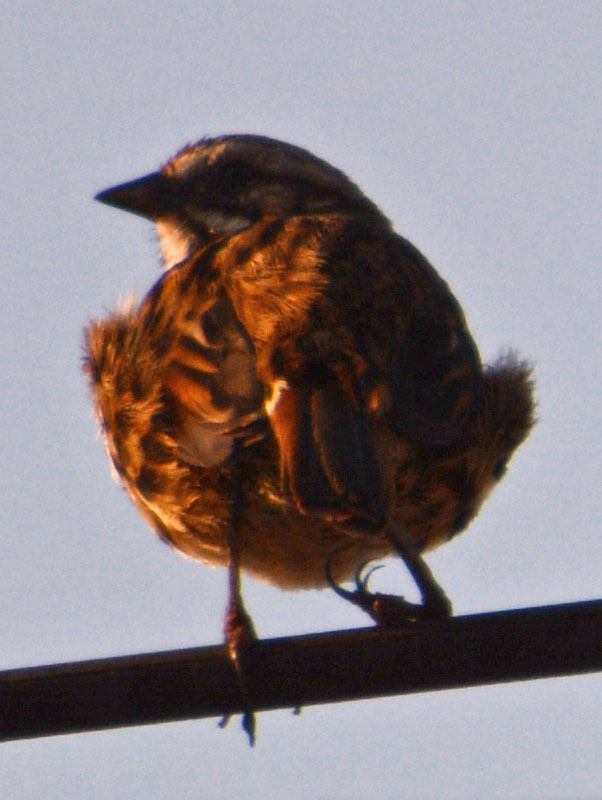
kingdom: Animalia
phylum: Chordata
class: Aves
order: Passeriformes
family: Passerellidae
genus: Melospiza
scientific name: Melospiza melodia
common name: Song sparrow
